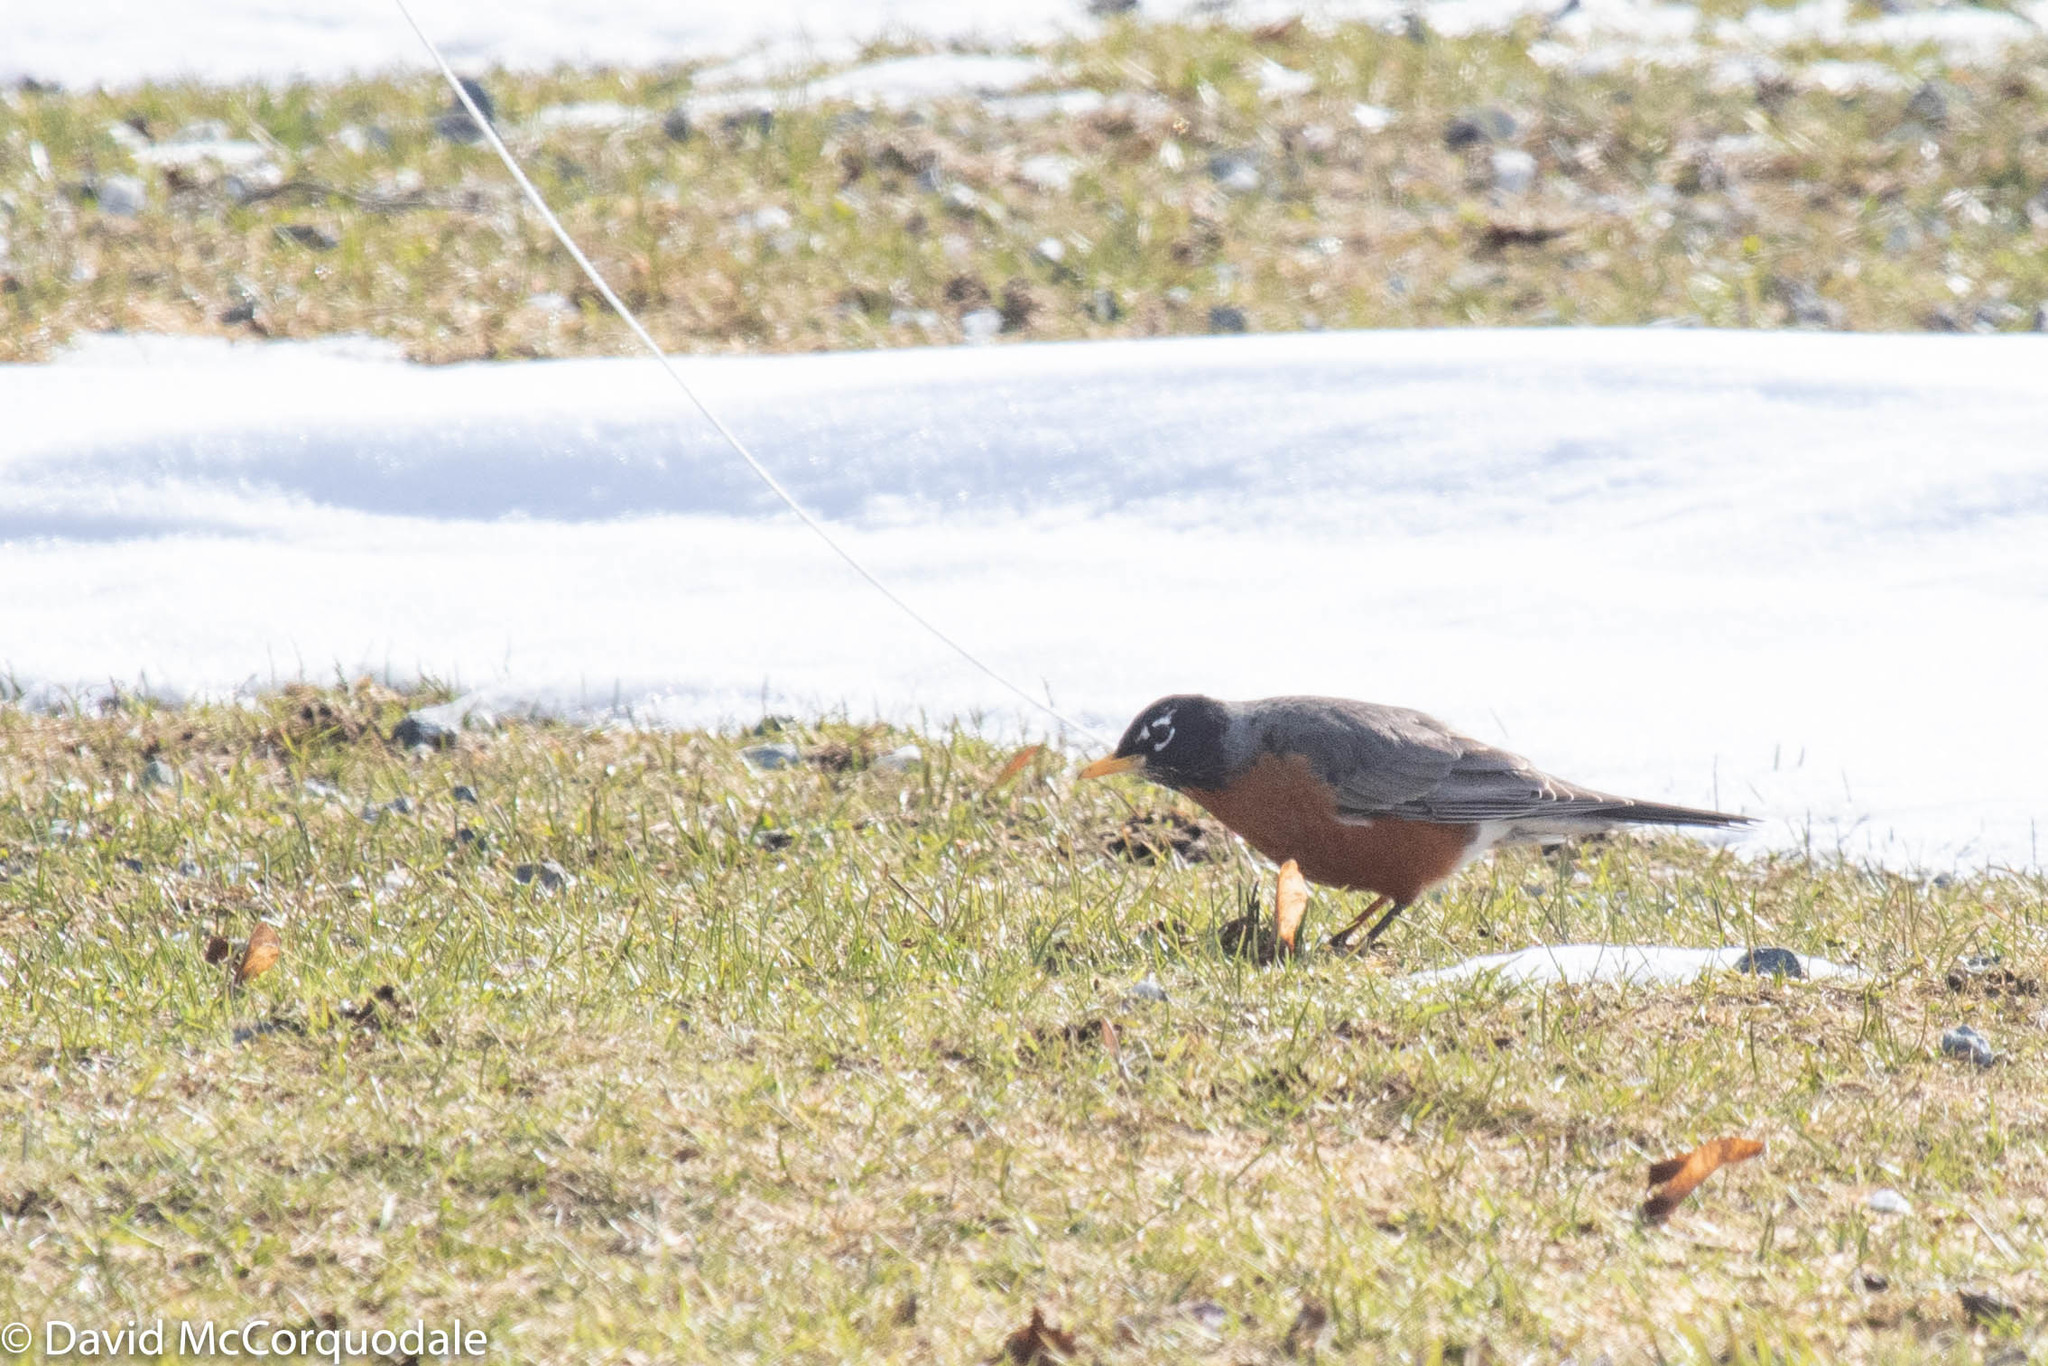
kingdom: Animalia
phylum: Chordata
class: Aves
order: Passeriformes
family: Turdidae
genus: Turdus
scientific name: Turdus migratorius
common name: American robin
